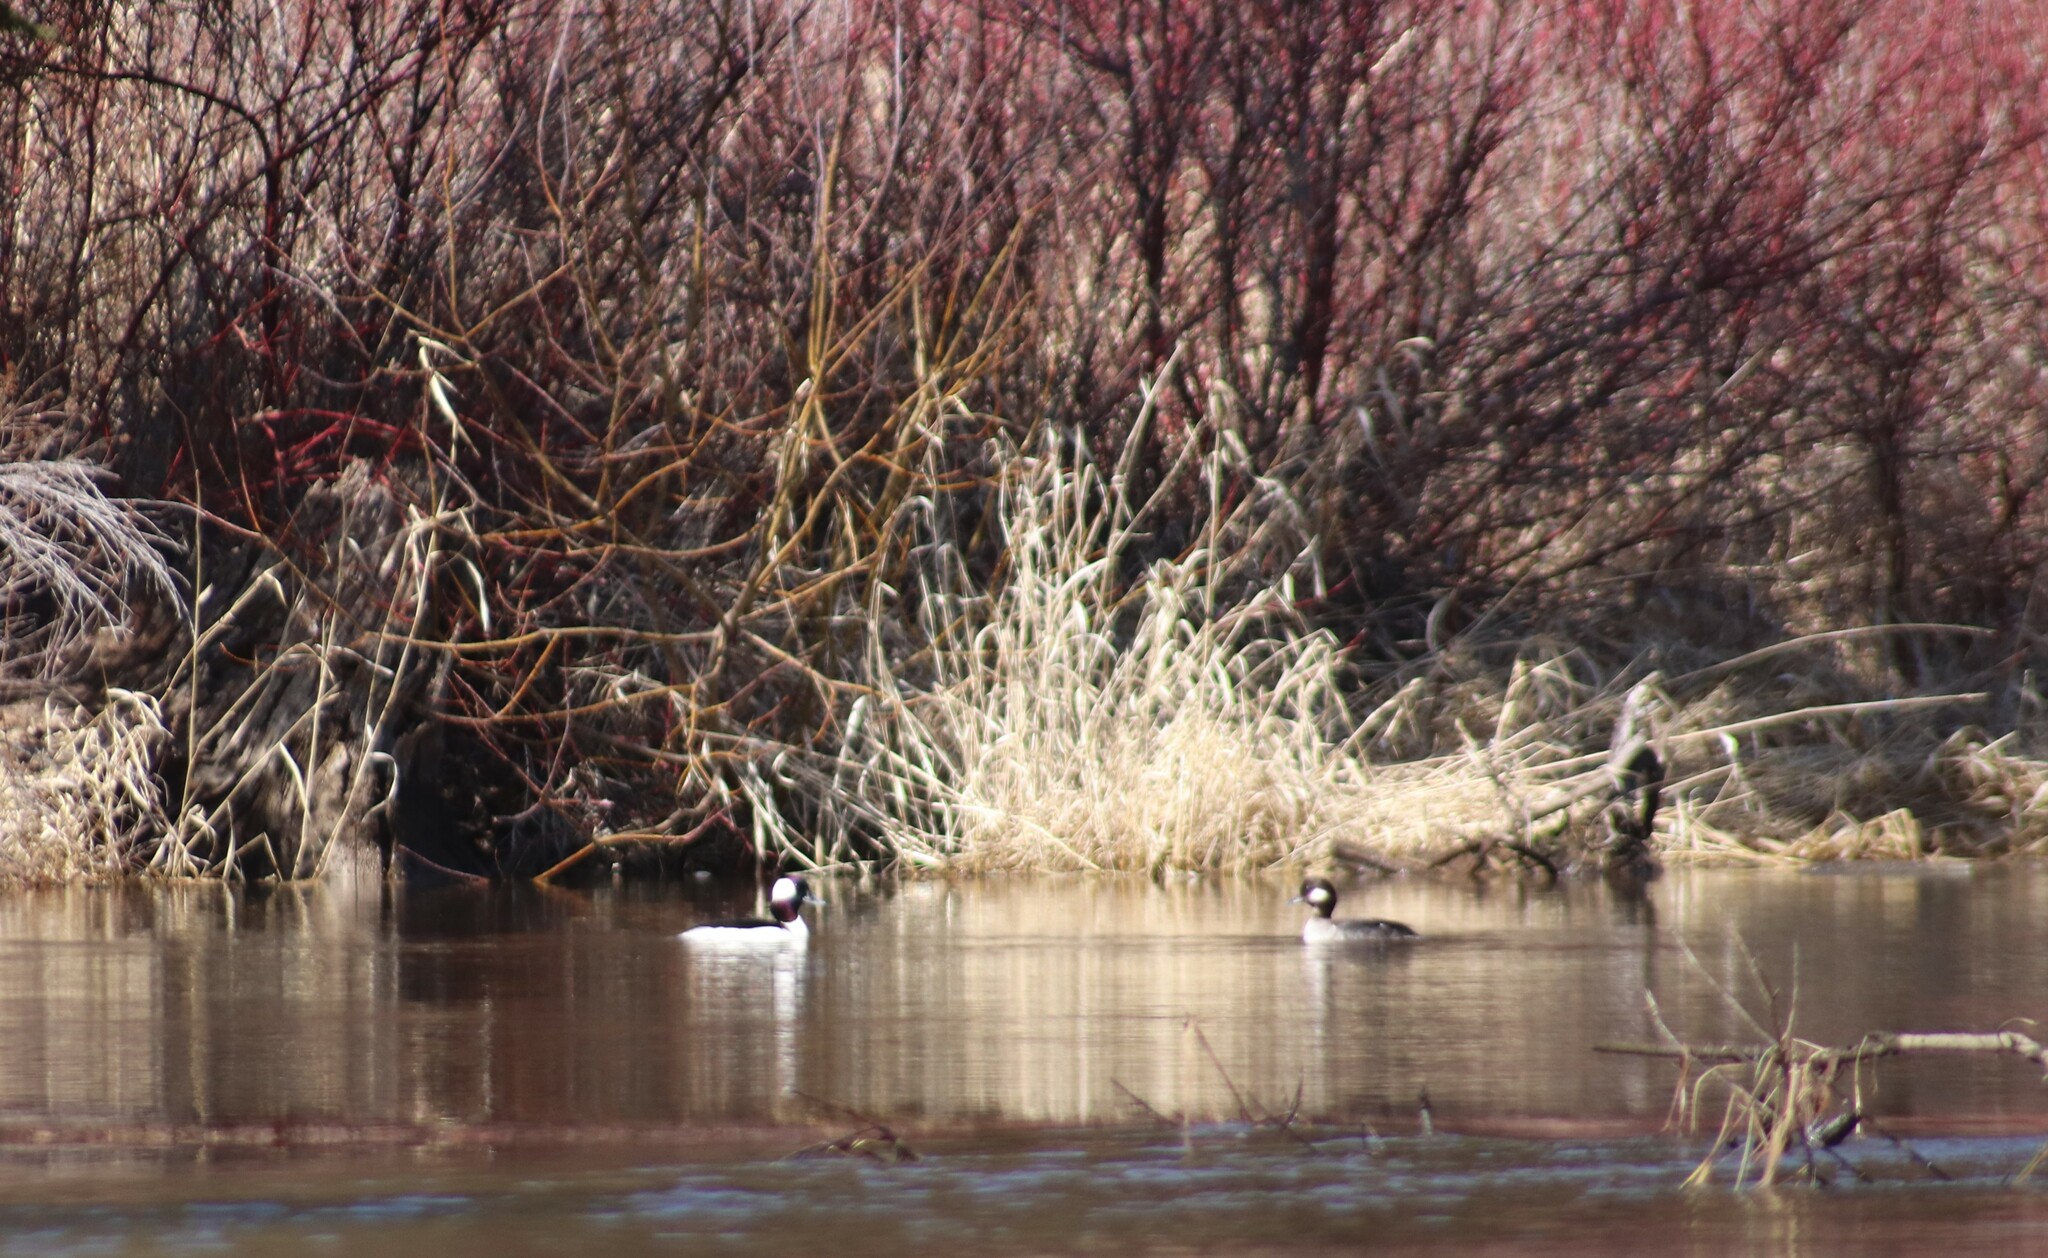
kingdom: Animalia
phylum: Chordata
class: Aves
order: Anseriformes
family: Anatidae
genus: Bucephala
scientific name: Bucephala albeola
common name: Bufflehead
